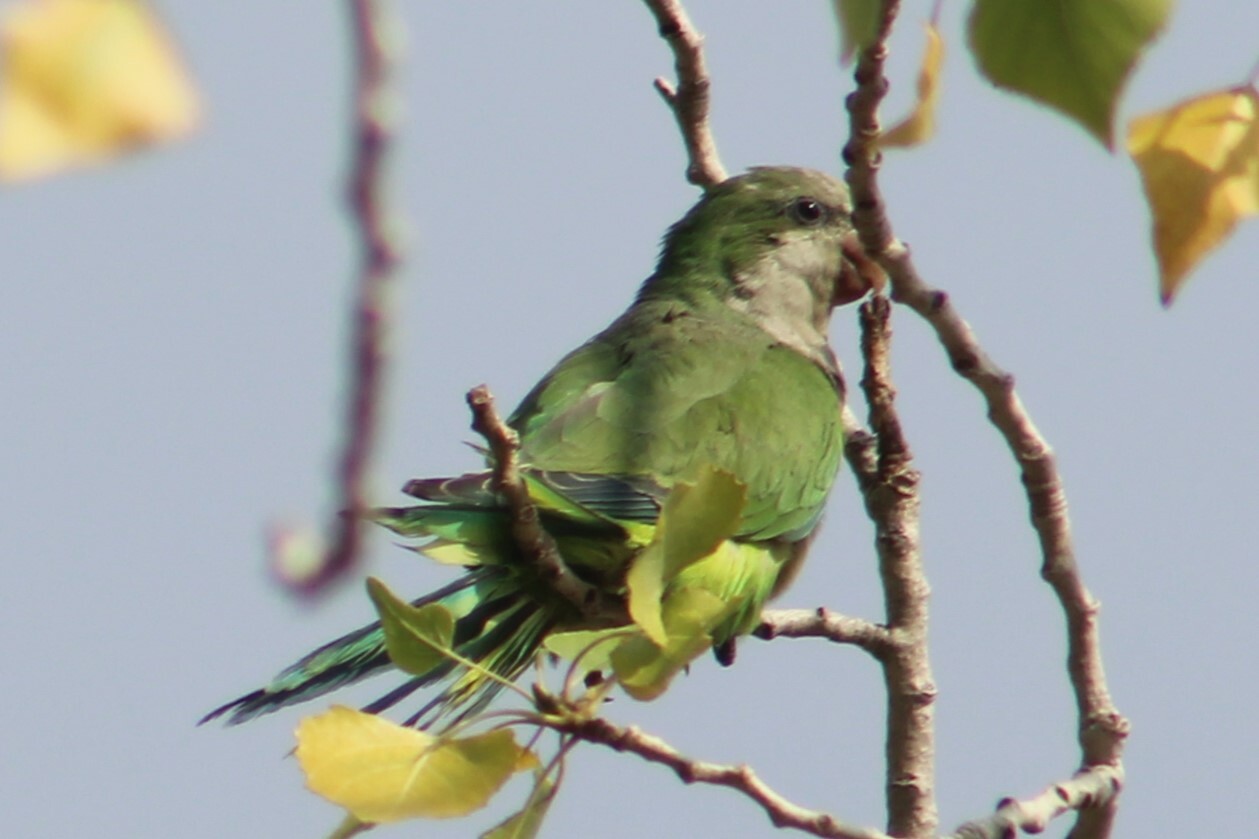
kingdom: Animalia
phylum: Chordata
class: Aves
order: Psittaciformes
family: Psittacidae
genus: Myiopsitta
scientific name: Myiopsitta monachus
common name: Monk parakeet
